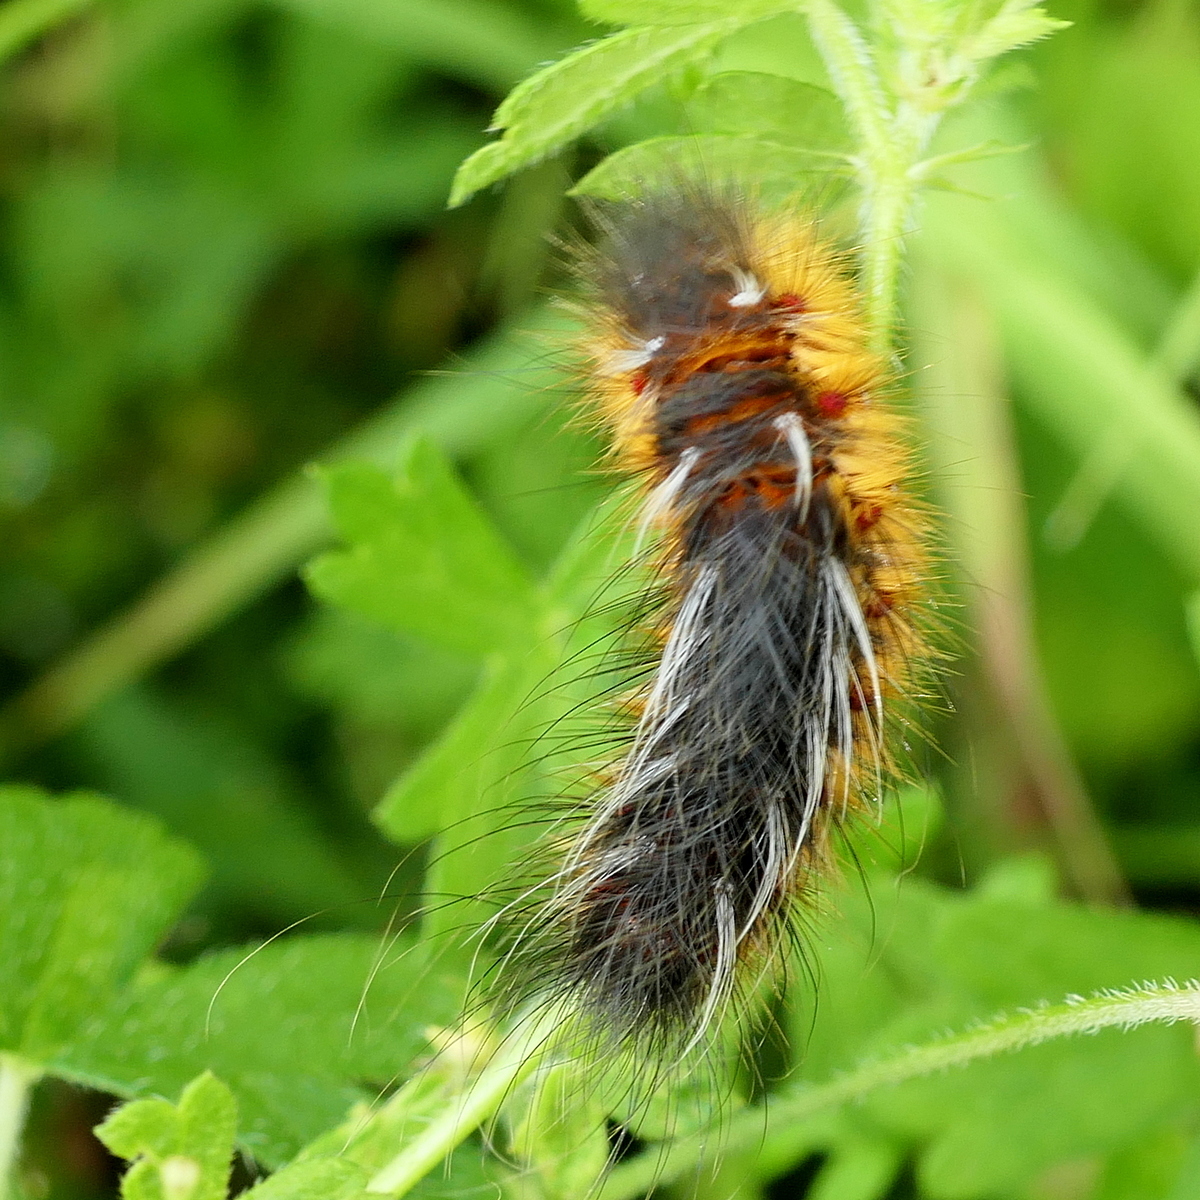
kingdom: Animalia
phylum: Arthropoda
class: Insecta
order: Lepidoptera
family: Anthelidae
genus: Anthela
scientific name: Anthela ocellata
